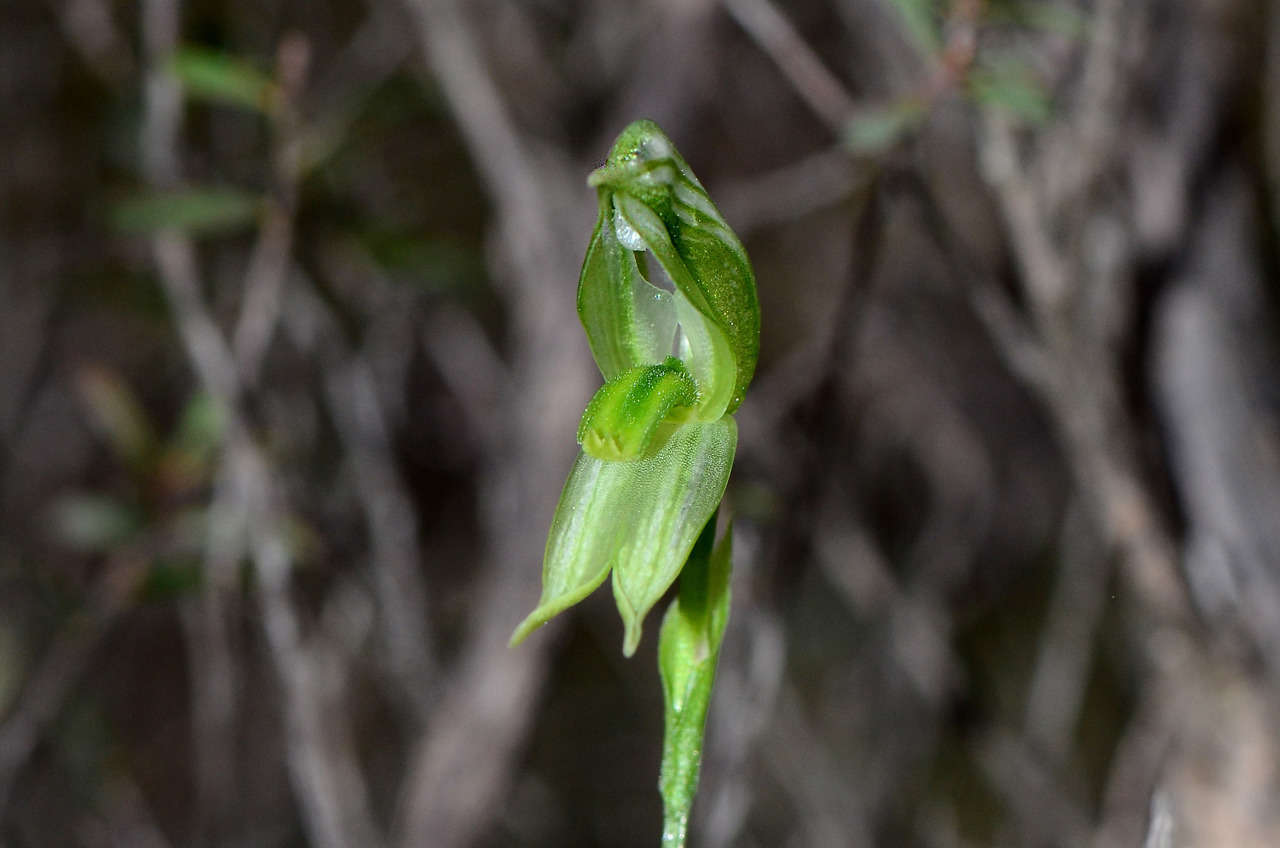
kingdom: Plantae
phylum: Tracheophyta
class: Liliopsida
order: Asparagales
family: Orchidaceae
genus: Pterostylis
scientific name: Pterostylis prasina
